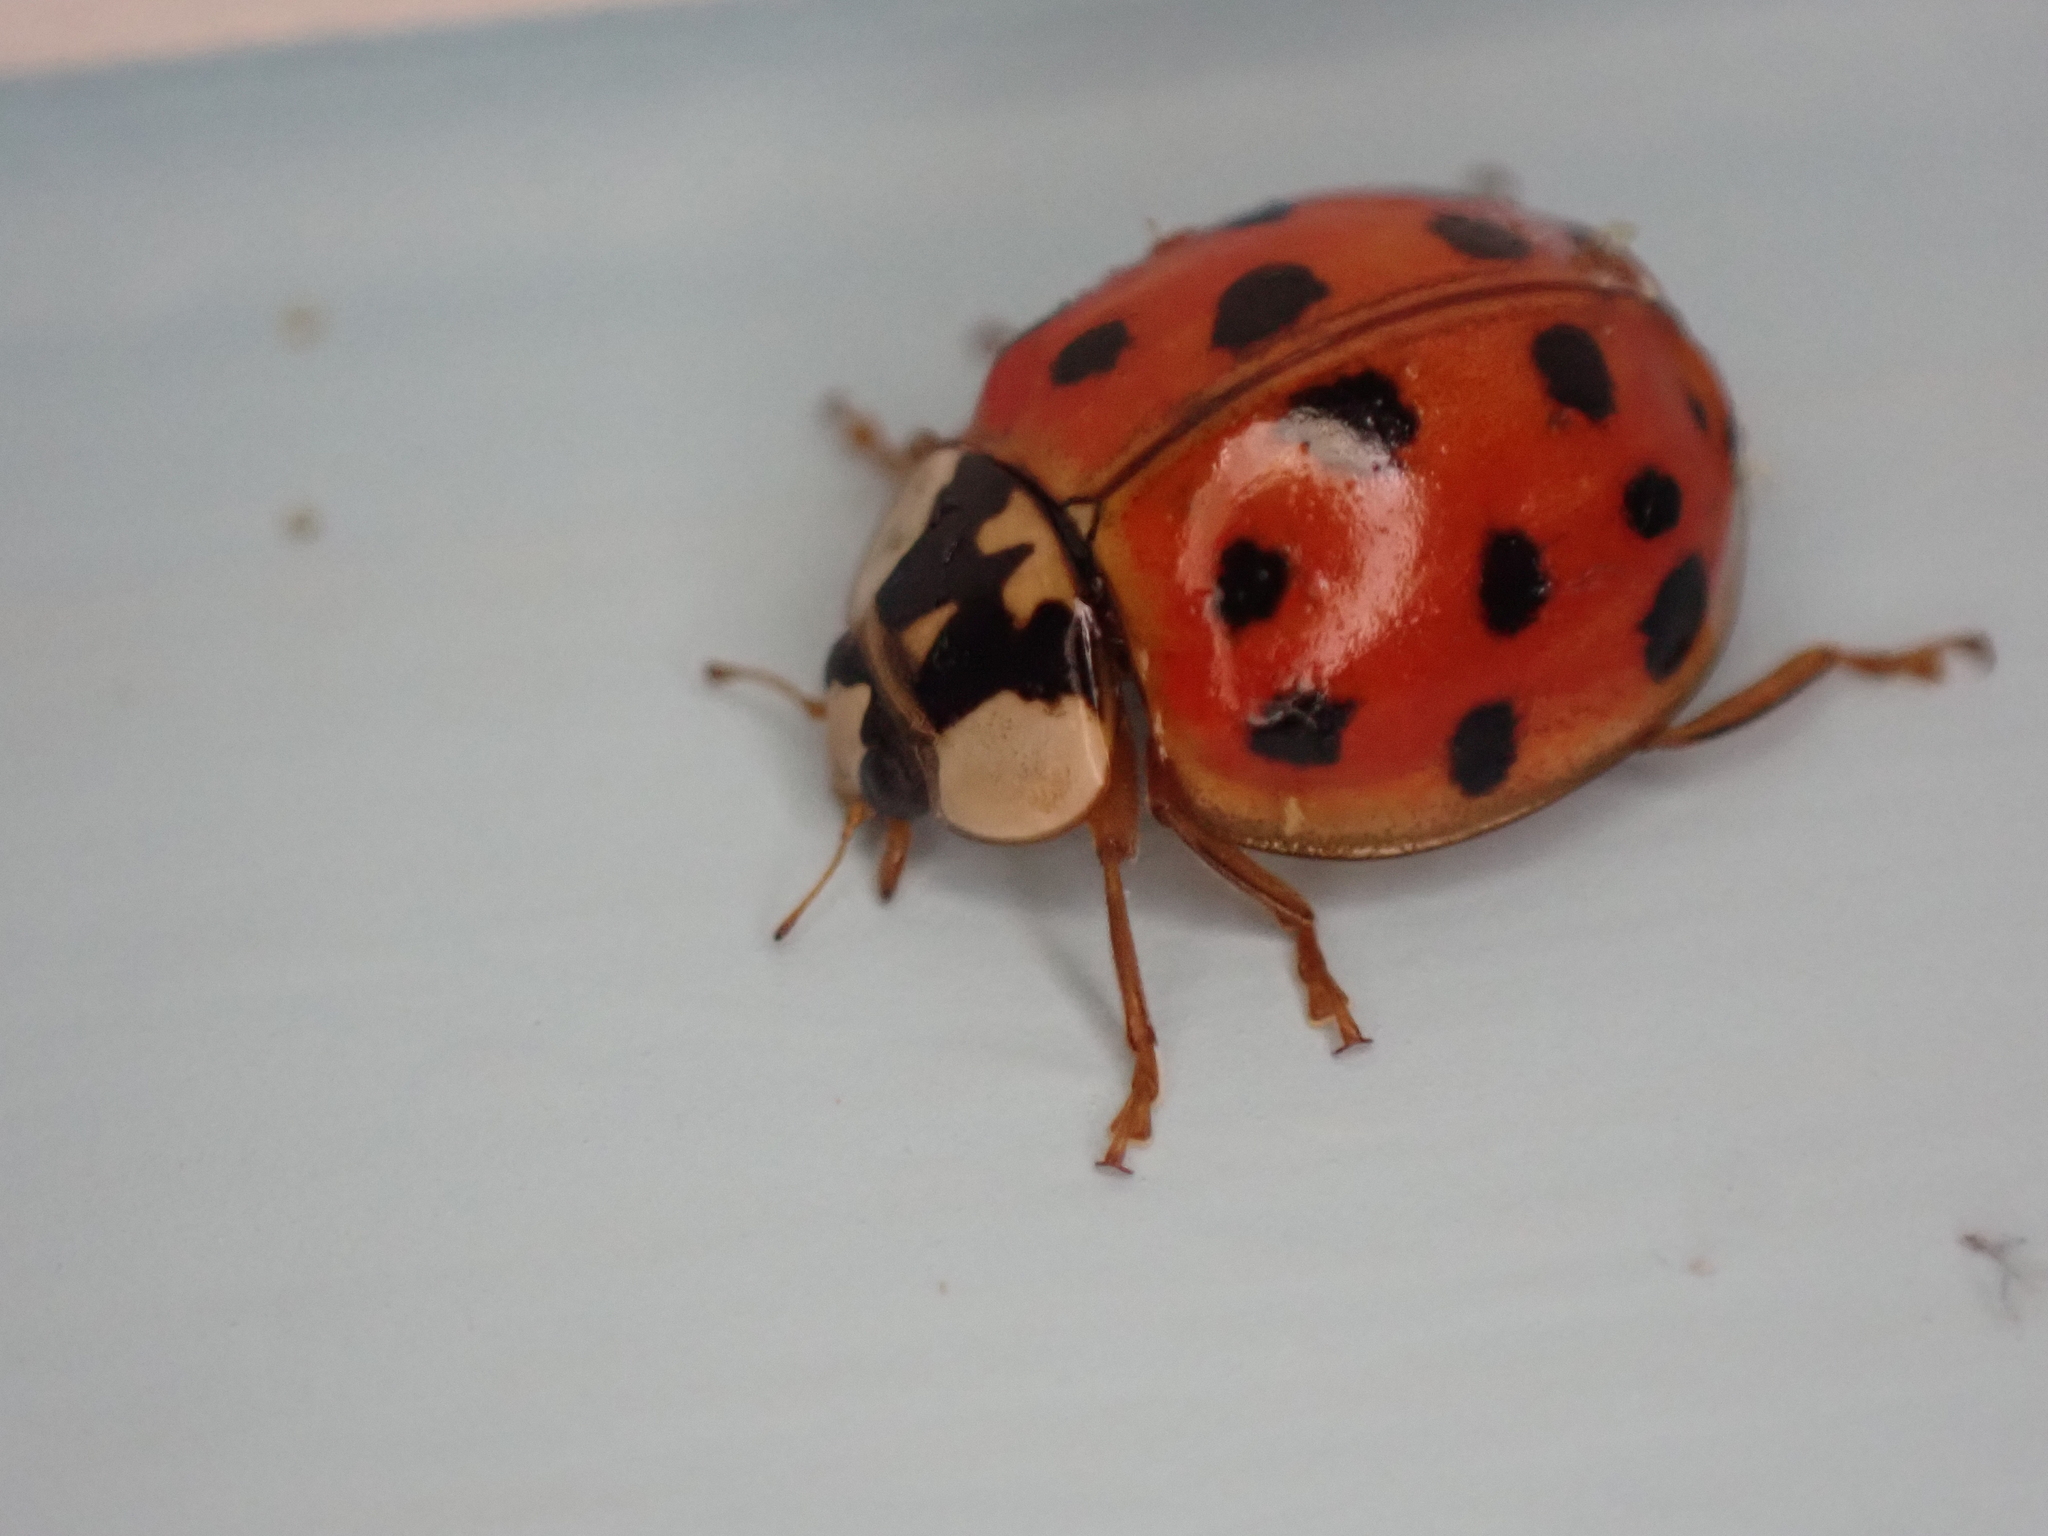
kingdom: Animalia
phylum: Arthropoda
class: Insecta
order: Coleoptera
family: Coccinellidae
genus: Harmonia
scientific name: Harmonia axyridis
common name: Harlequin ladybird
